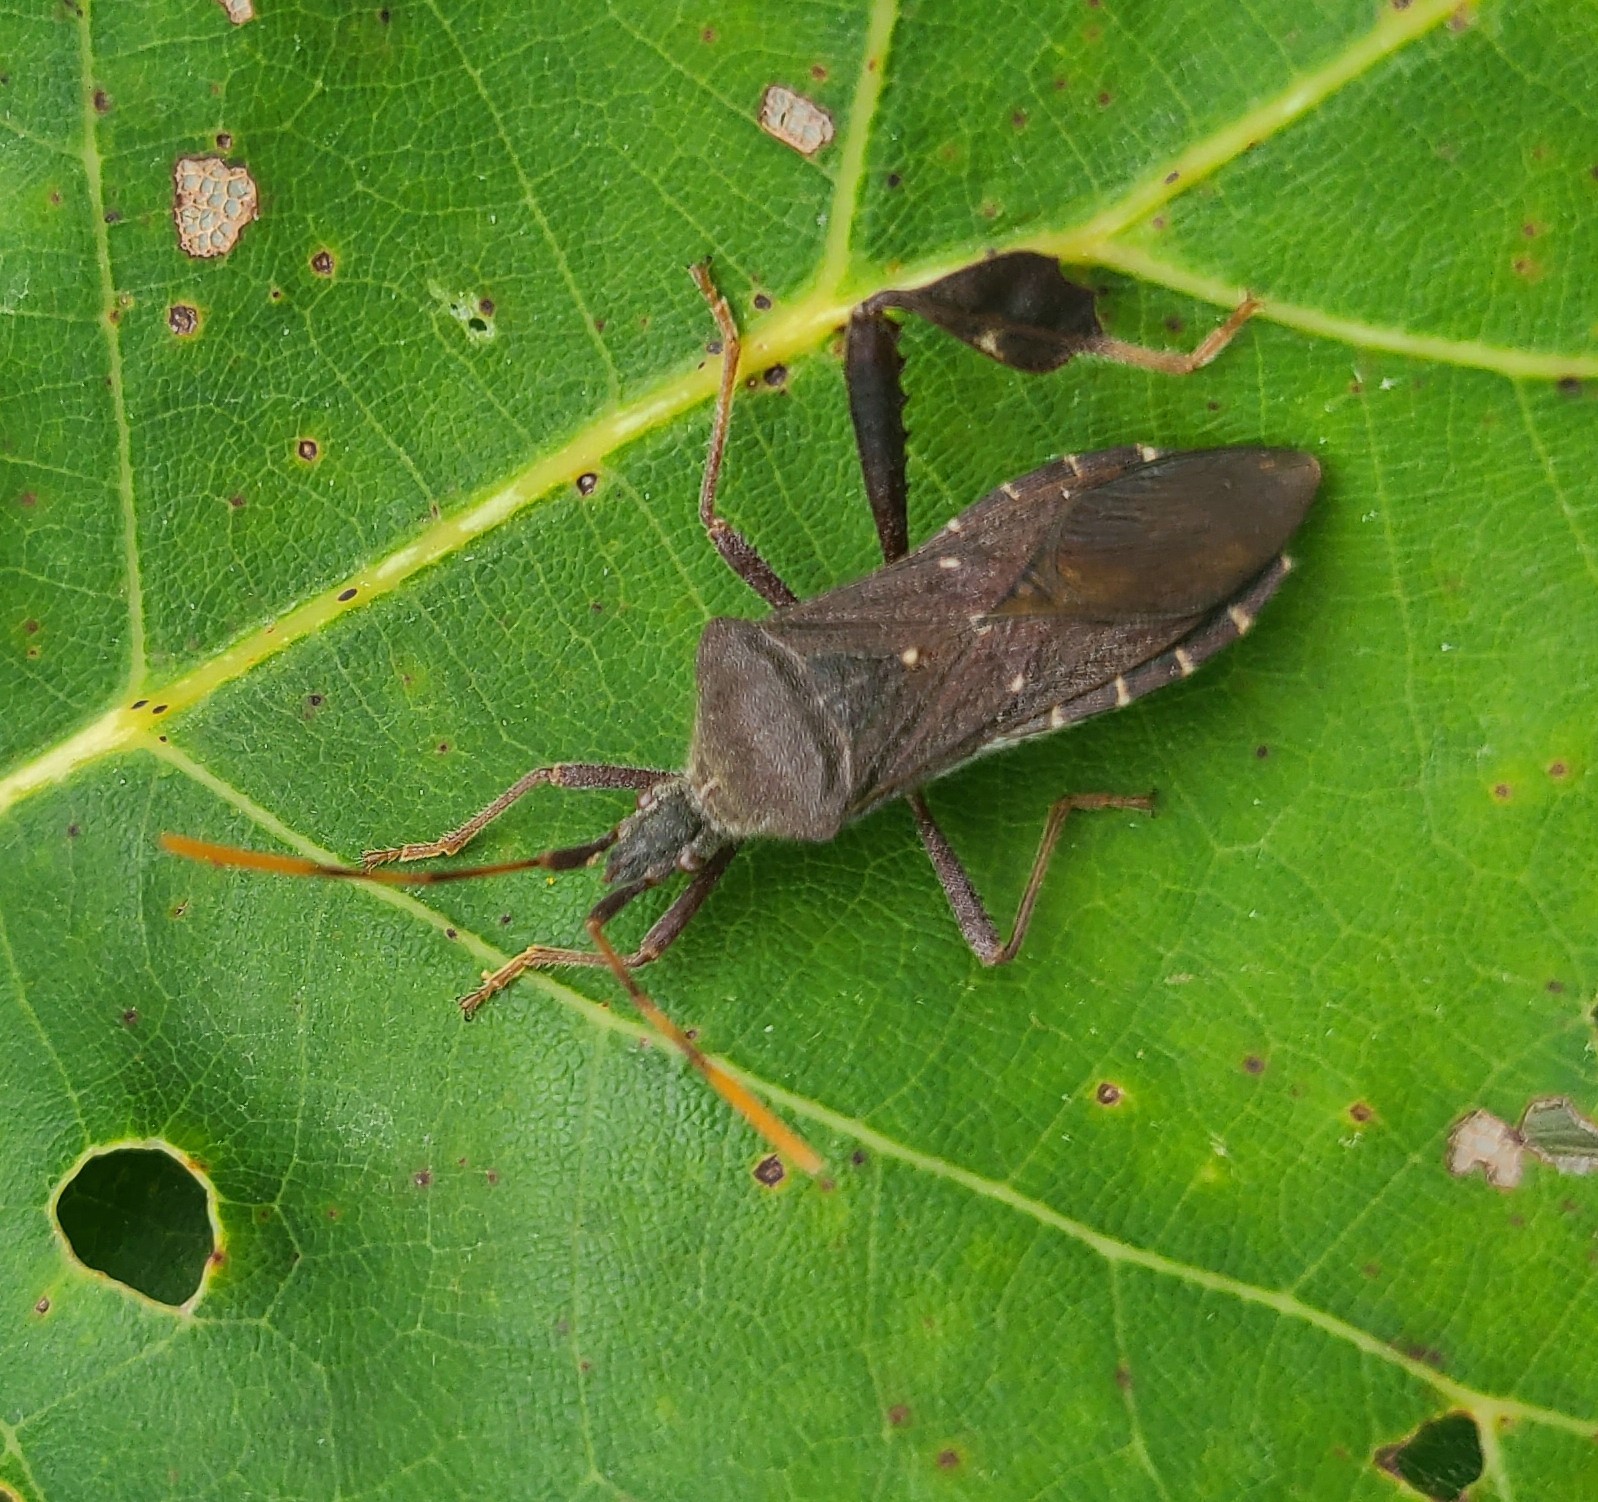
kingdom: Animalia
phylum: Arthropoda
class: Insecta
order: Hemiptera
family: Coreidae
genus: Leptoglossus
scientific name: Leptoglossus oppositus
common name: Northern leaf-footed bug
